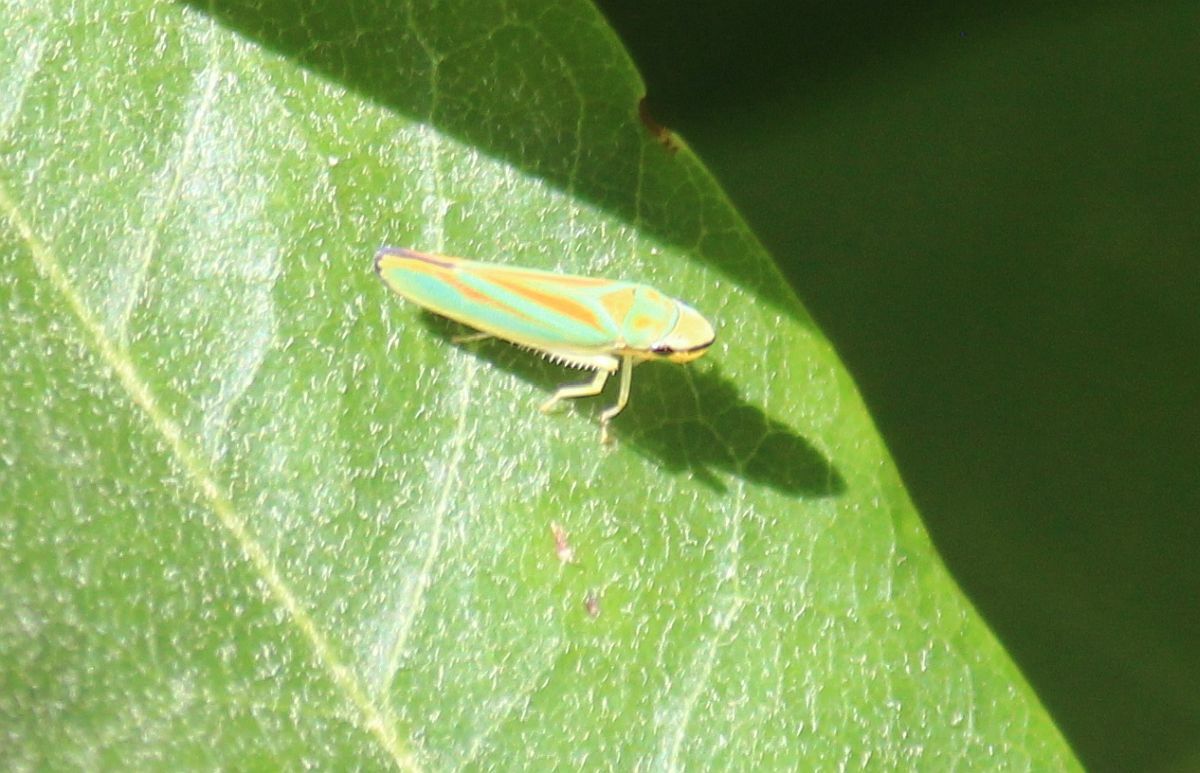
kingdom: Animalia
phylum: Arthropoda
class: Insecta
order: Hemiptera
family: Cicadellidae
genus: Graphocephala
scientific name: Graphocephala fennahi
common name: Rhododendron leafhopper
